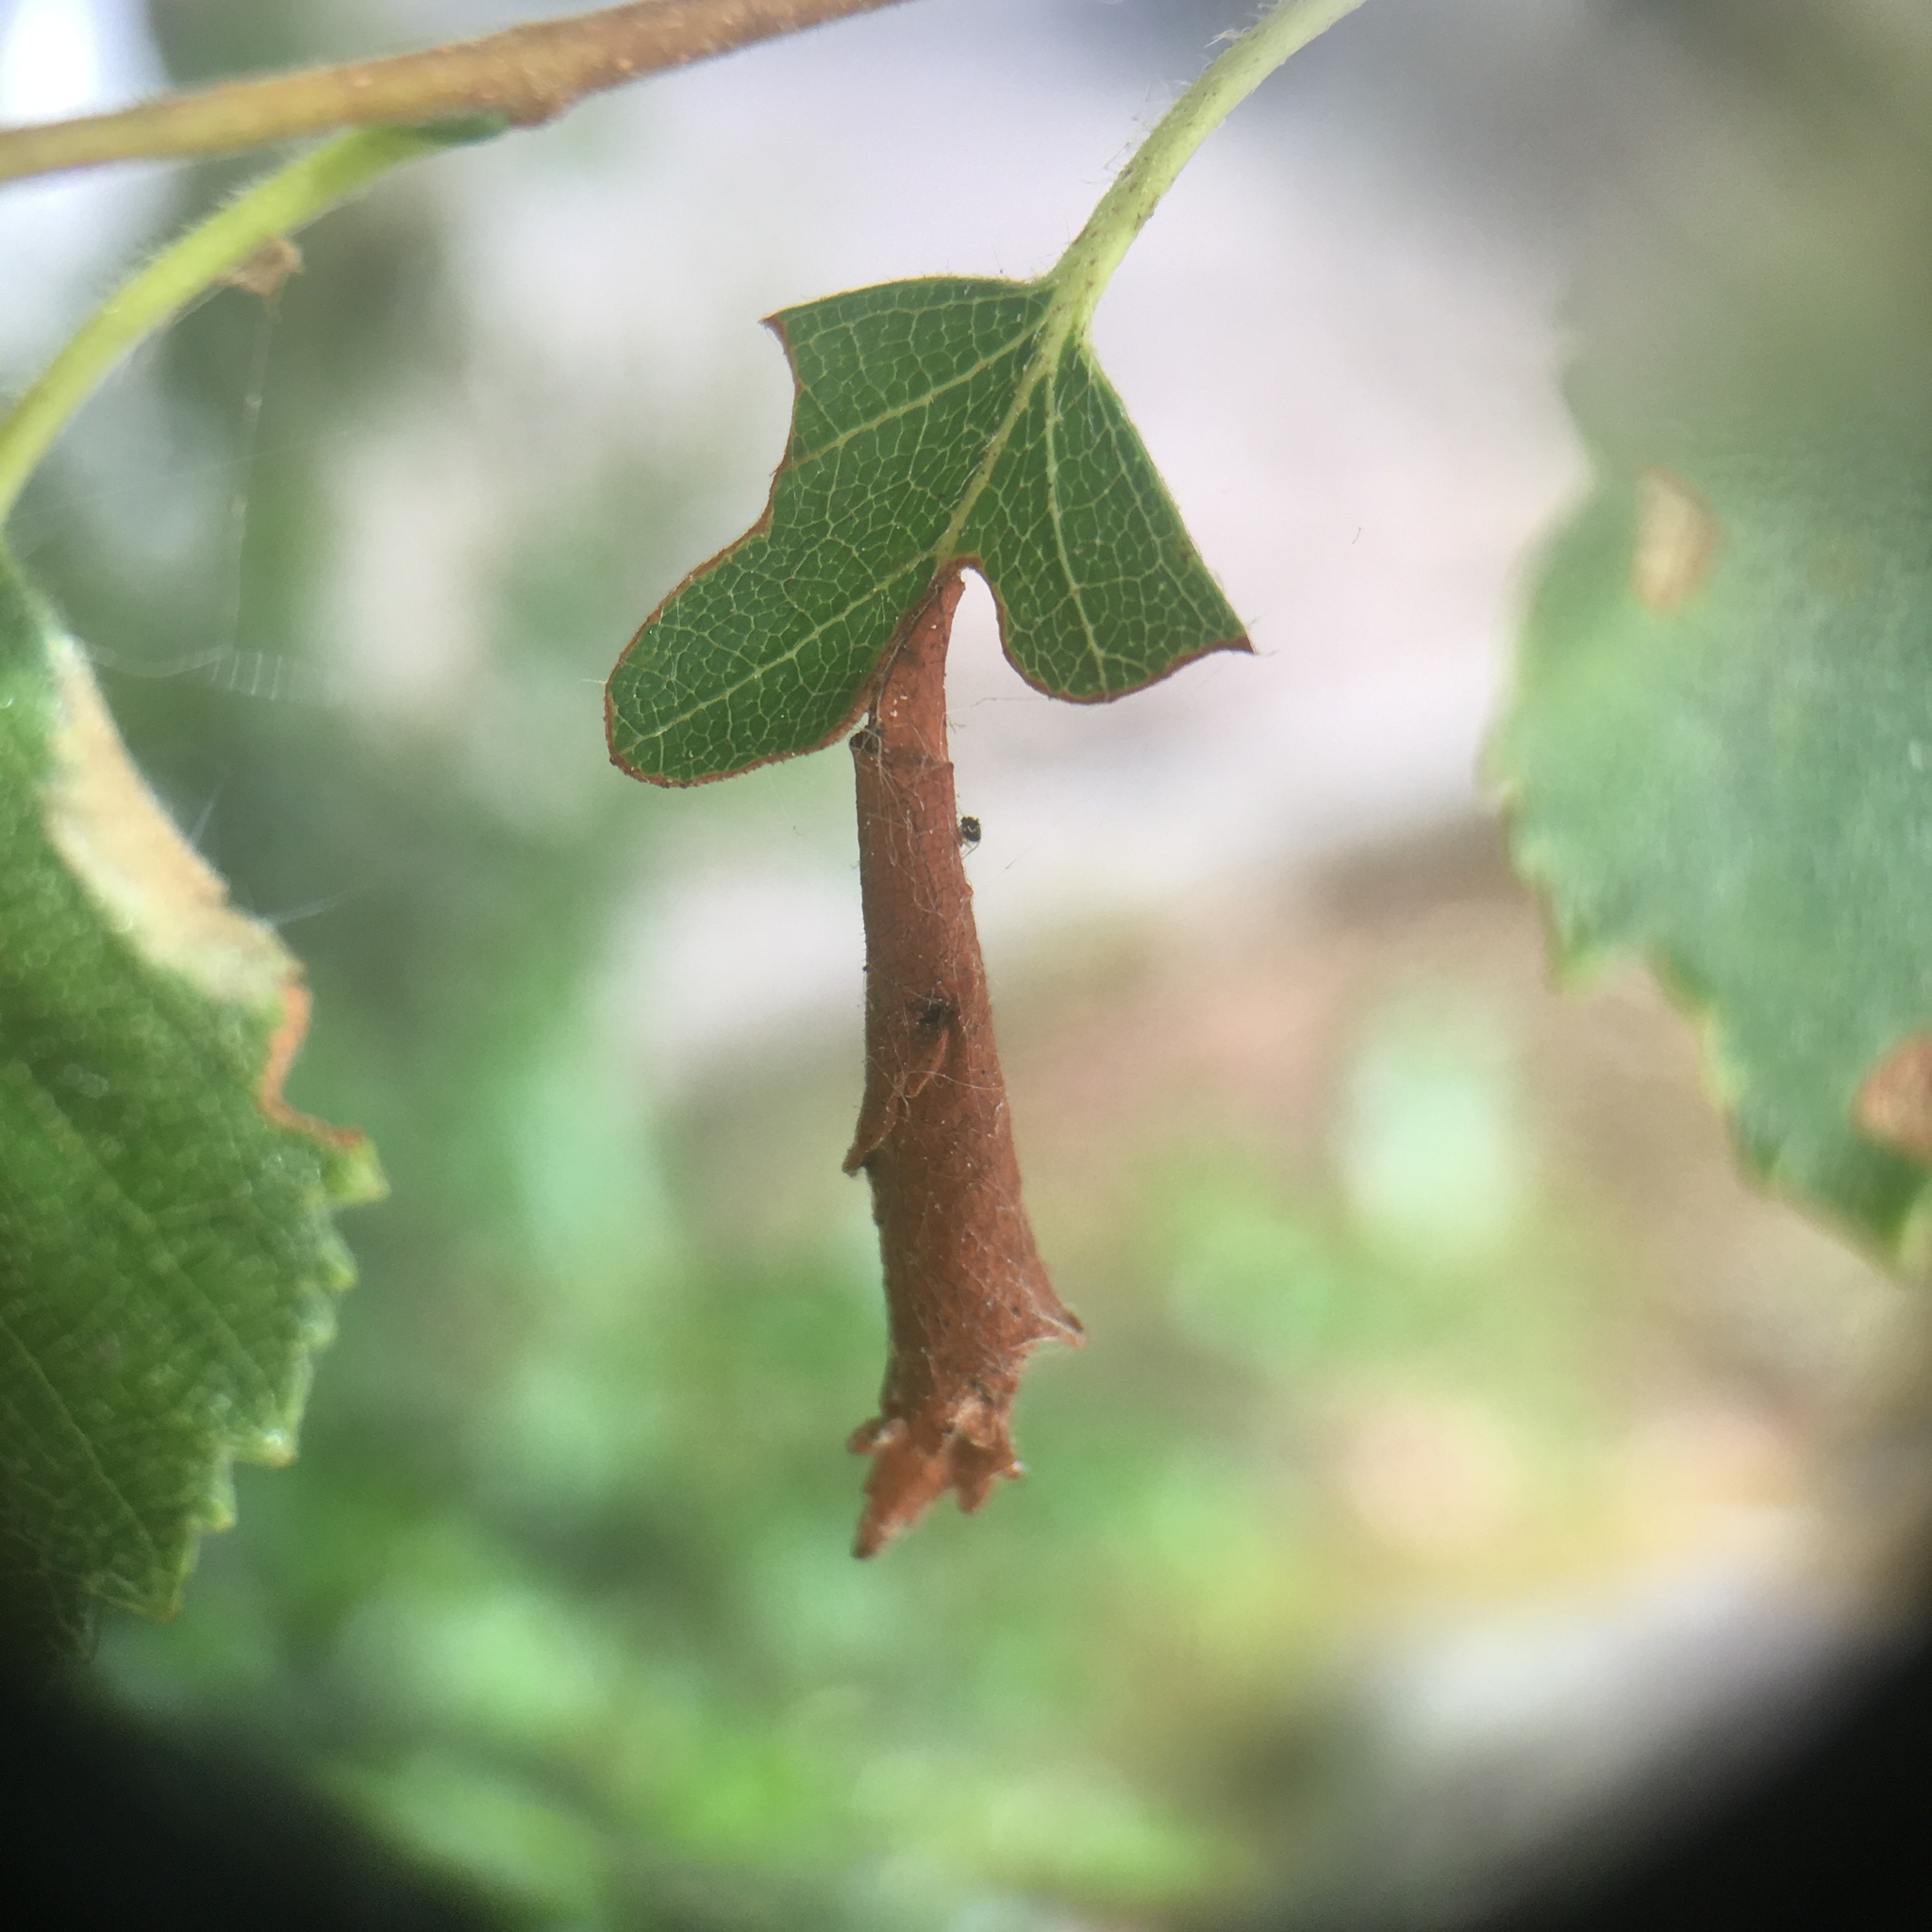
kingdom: Animalia
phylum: Arthropoda
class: Insecta
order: Coleoptera
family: Attelabidae
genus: Deporaus
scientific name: Deporaus betulae
